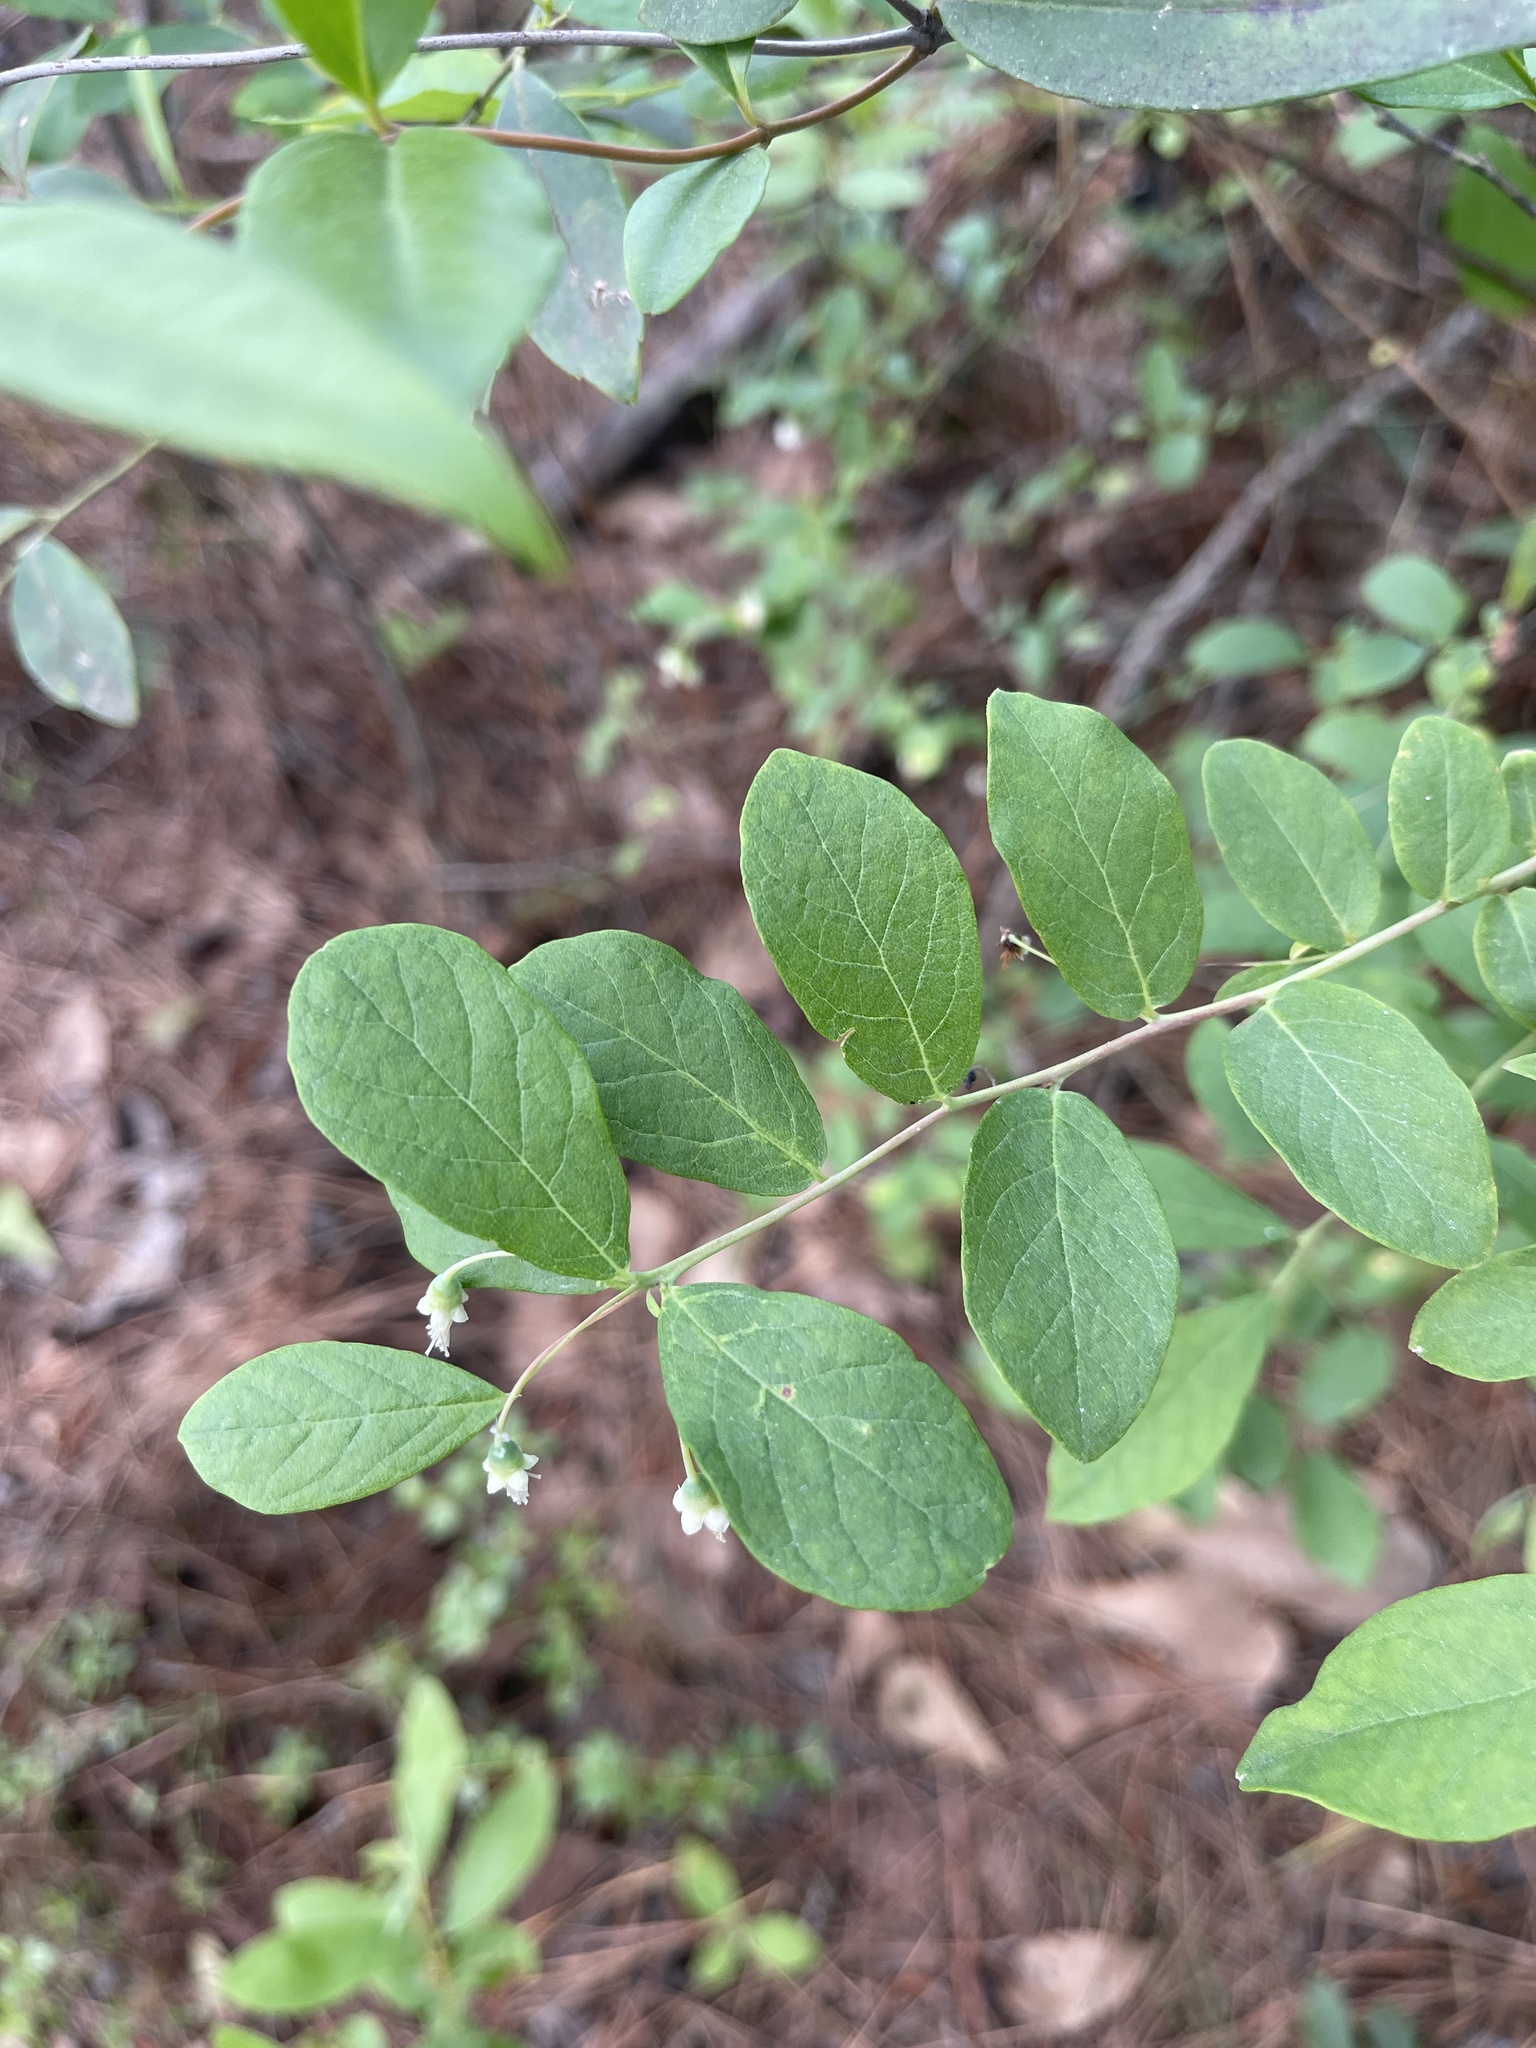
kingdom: Plantae
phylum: Tracheophyta
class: Magnoliopsida
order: Ericales
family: Ericaceae
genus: Vaccinium
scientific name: Vaccinium stamineum
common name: Deerberry
